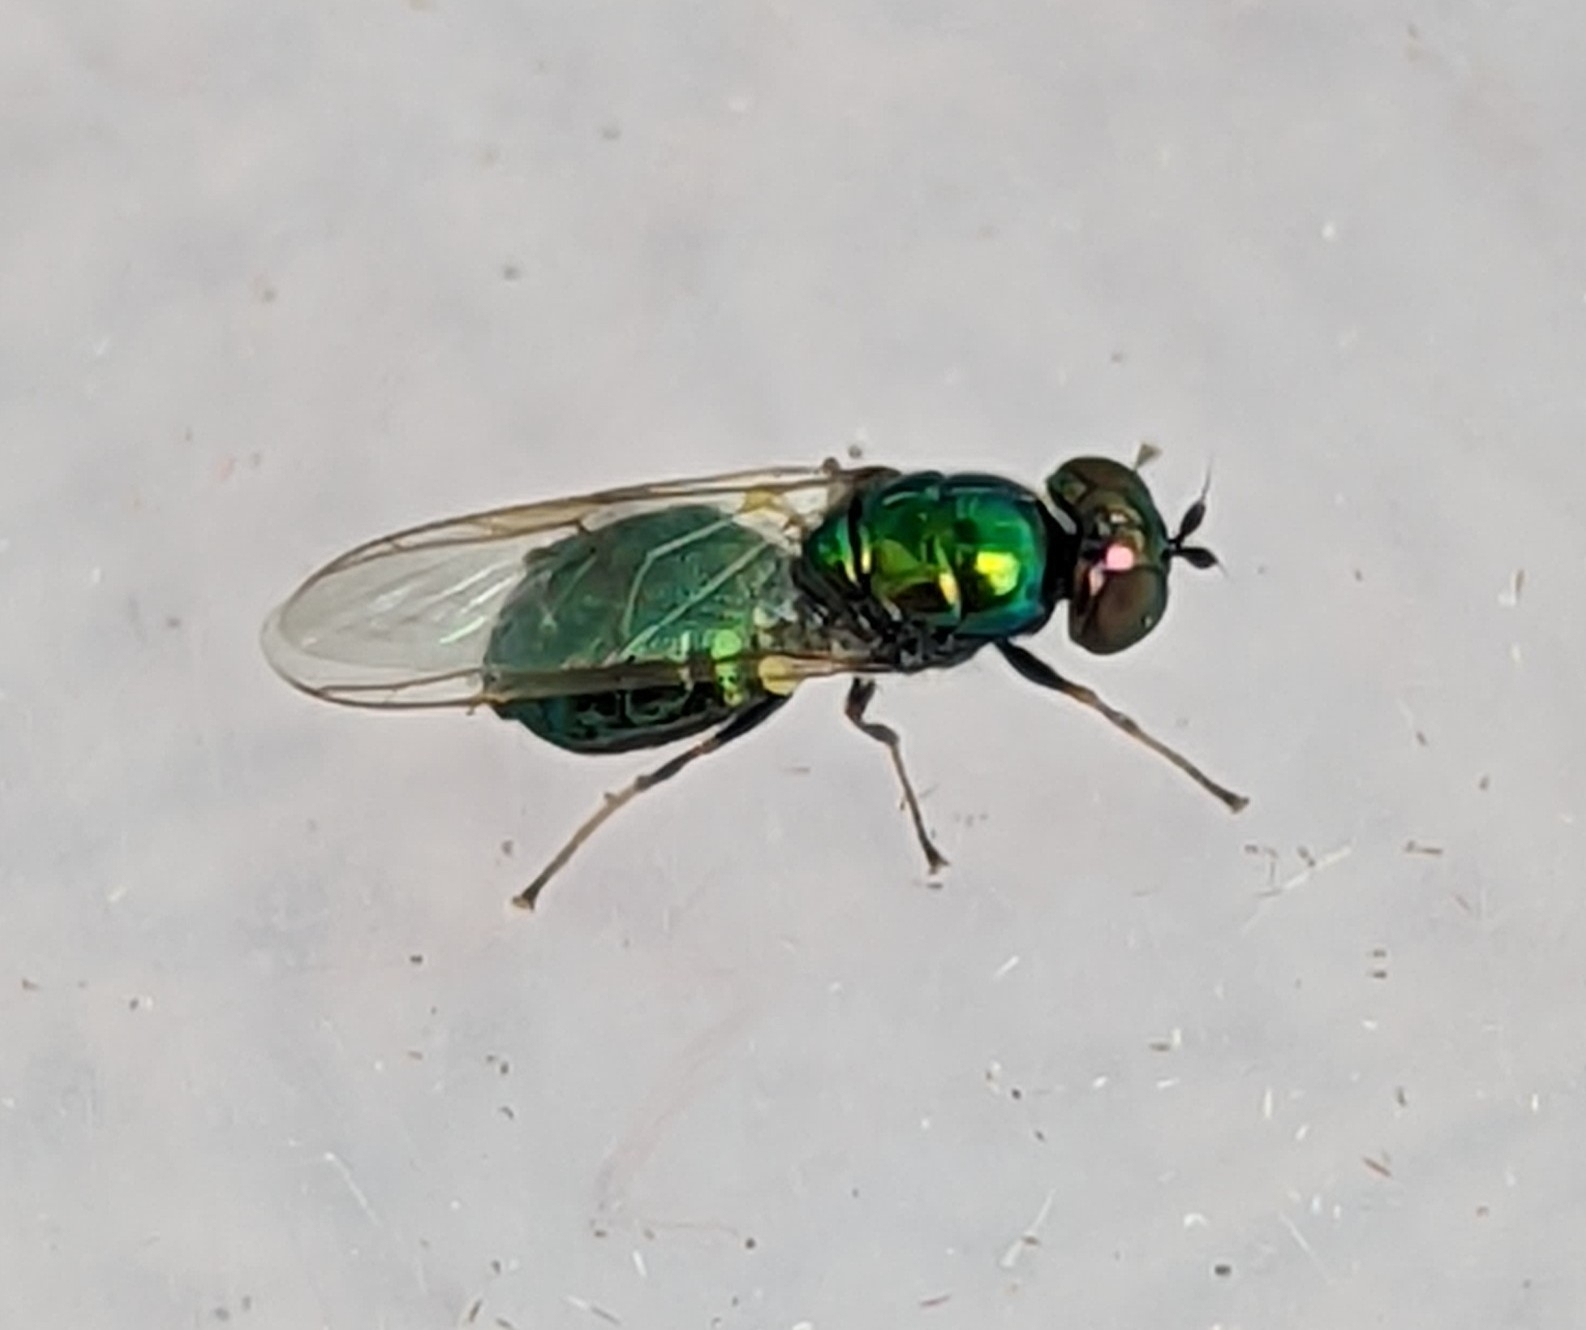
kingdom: Animalia
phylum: Arthropoda
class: Insecta
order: Diptera
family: Stratiomyidae
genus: Microchrysa
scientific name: Microchrysa polita
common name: Black-horned gem
